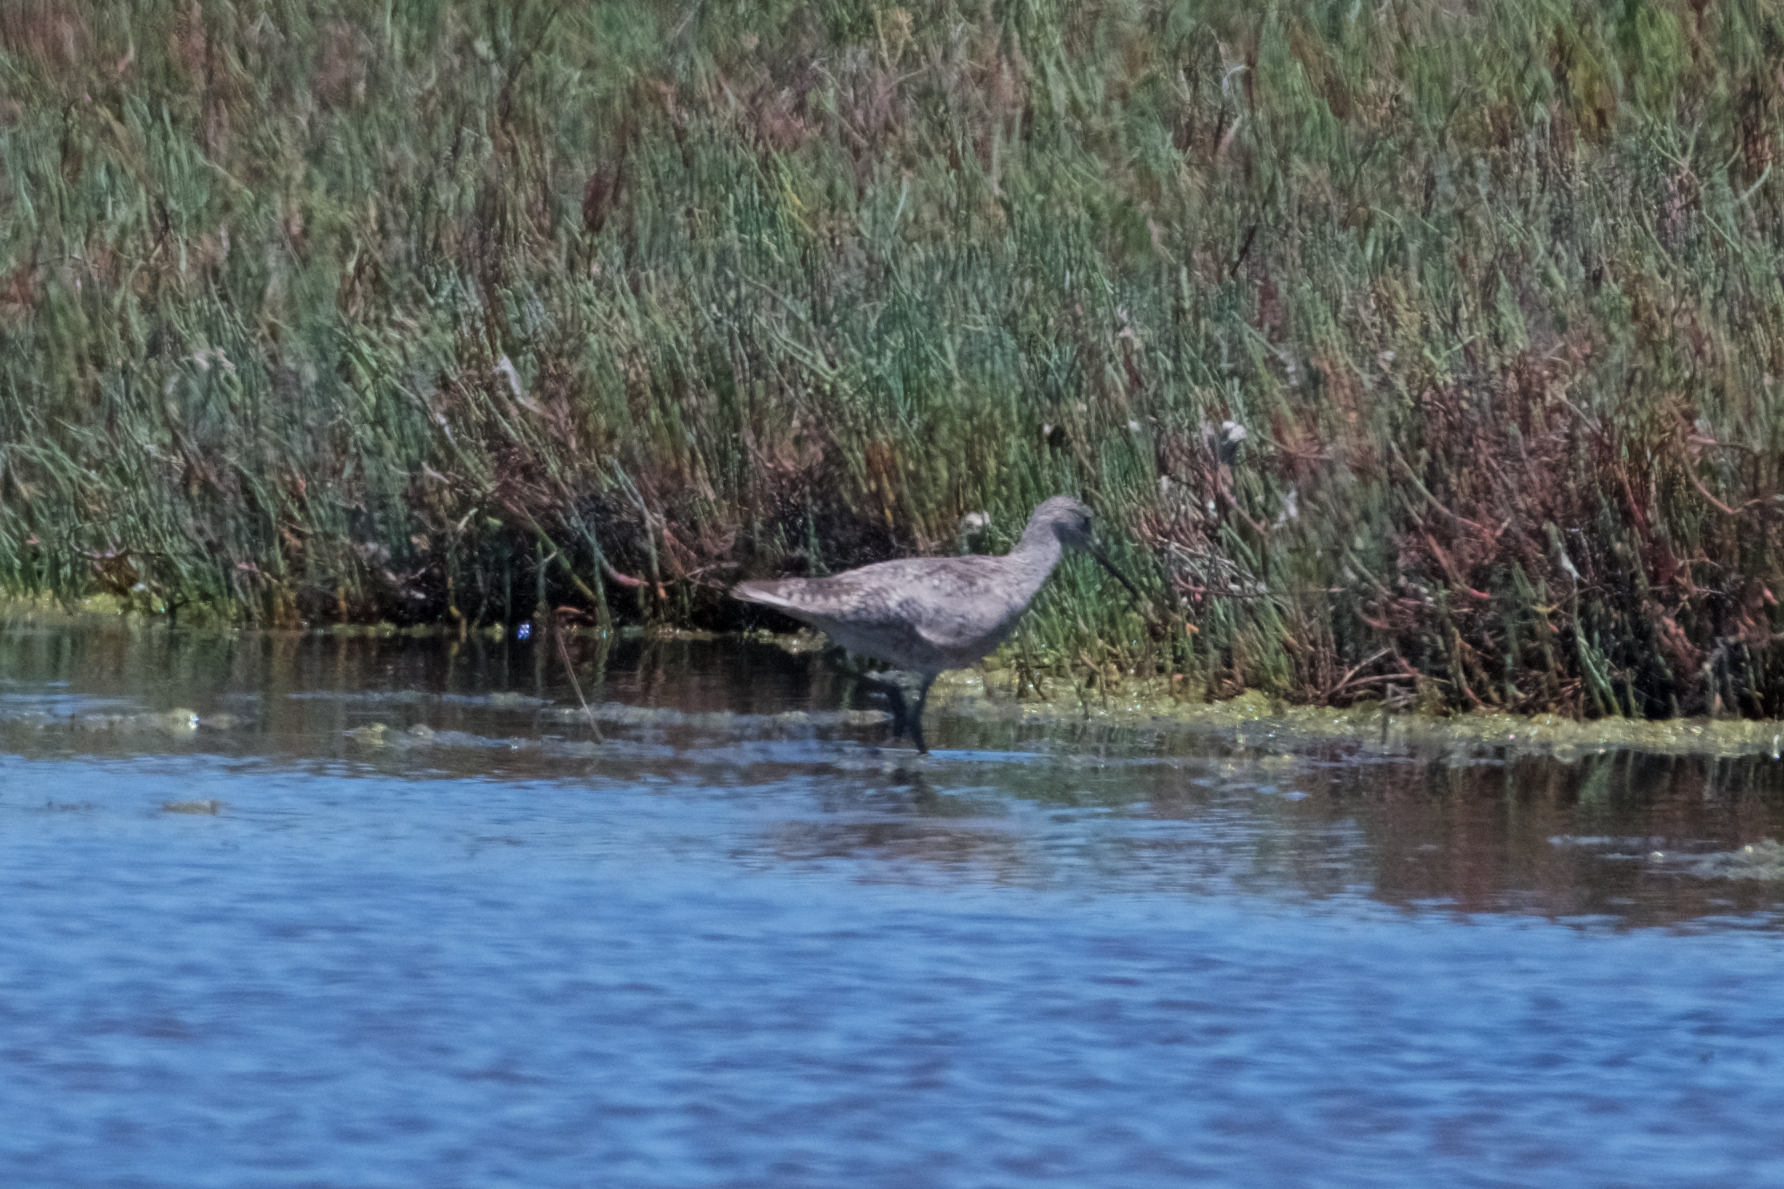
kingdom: Animalia
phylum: Chordata
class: Aves
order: Charadriiformes
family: Scolopacidae
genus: Tringa
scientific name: Tringa semipalmata
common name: Willet
